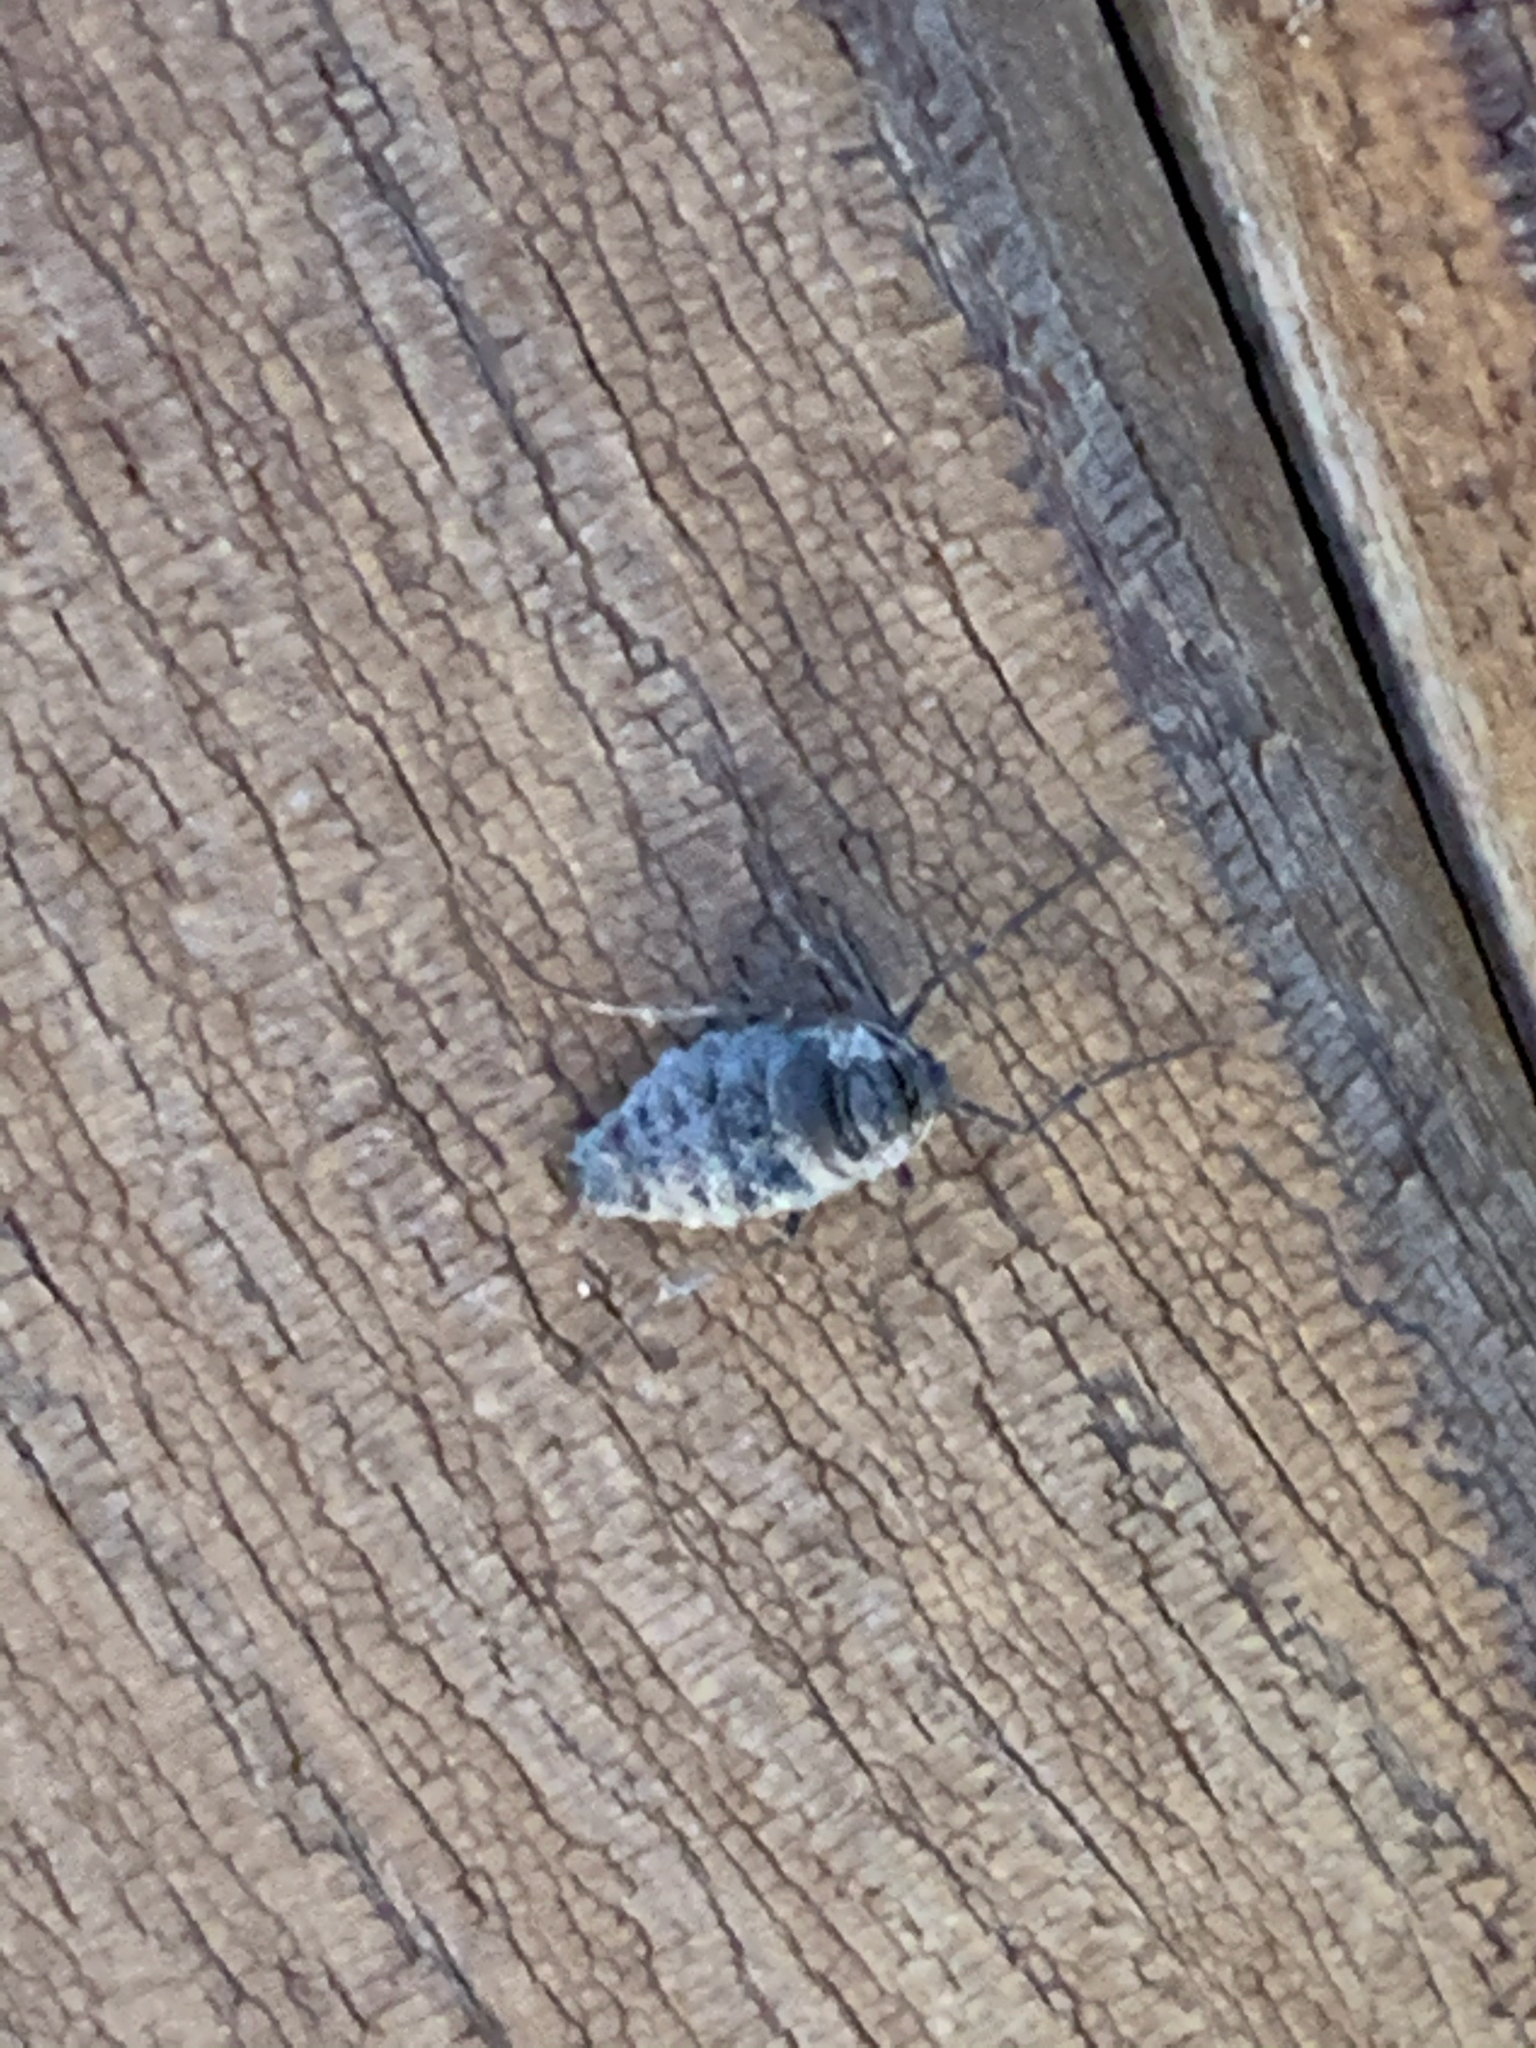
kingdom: Animalia
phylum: Arthropoda
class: Insecta
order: Lepidoptera
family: Geometridae
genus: Alsophila
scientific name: Alsophila pometaria
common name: Fall cankerworm
